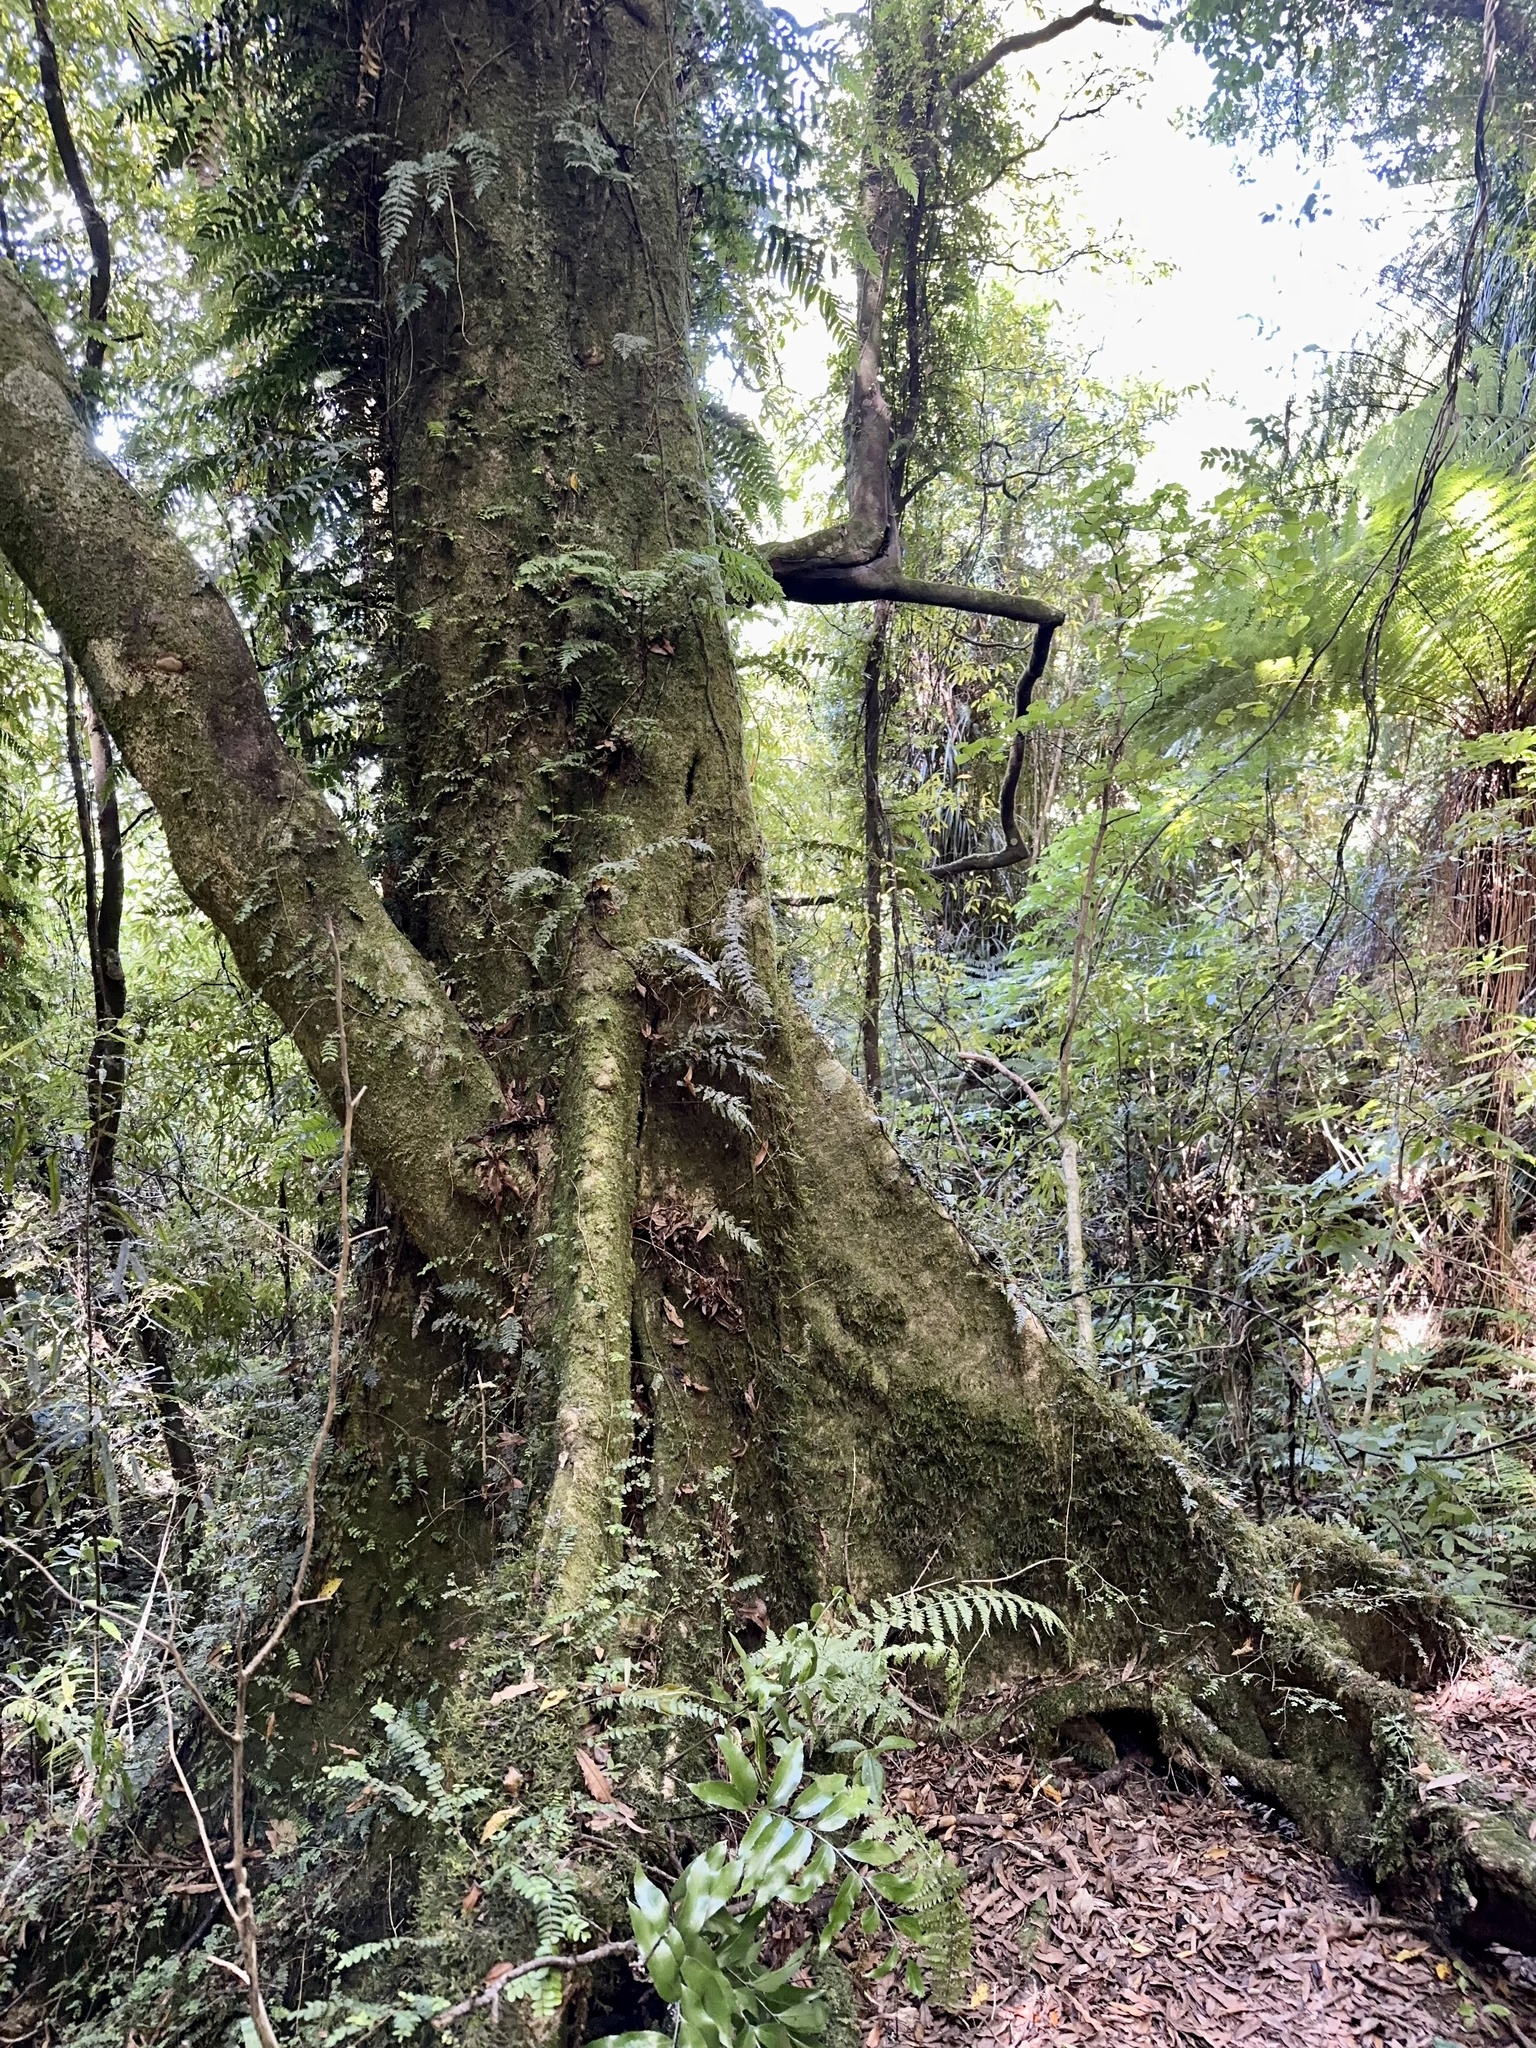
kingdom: Plantae
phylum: Tracheophyta
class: Magnoliopsida
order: Laurales
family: Atherospermataceae
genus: Laurelia
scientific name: Laurelia novae-zelandiae
